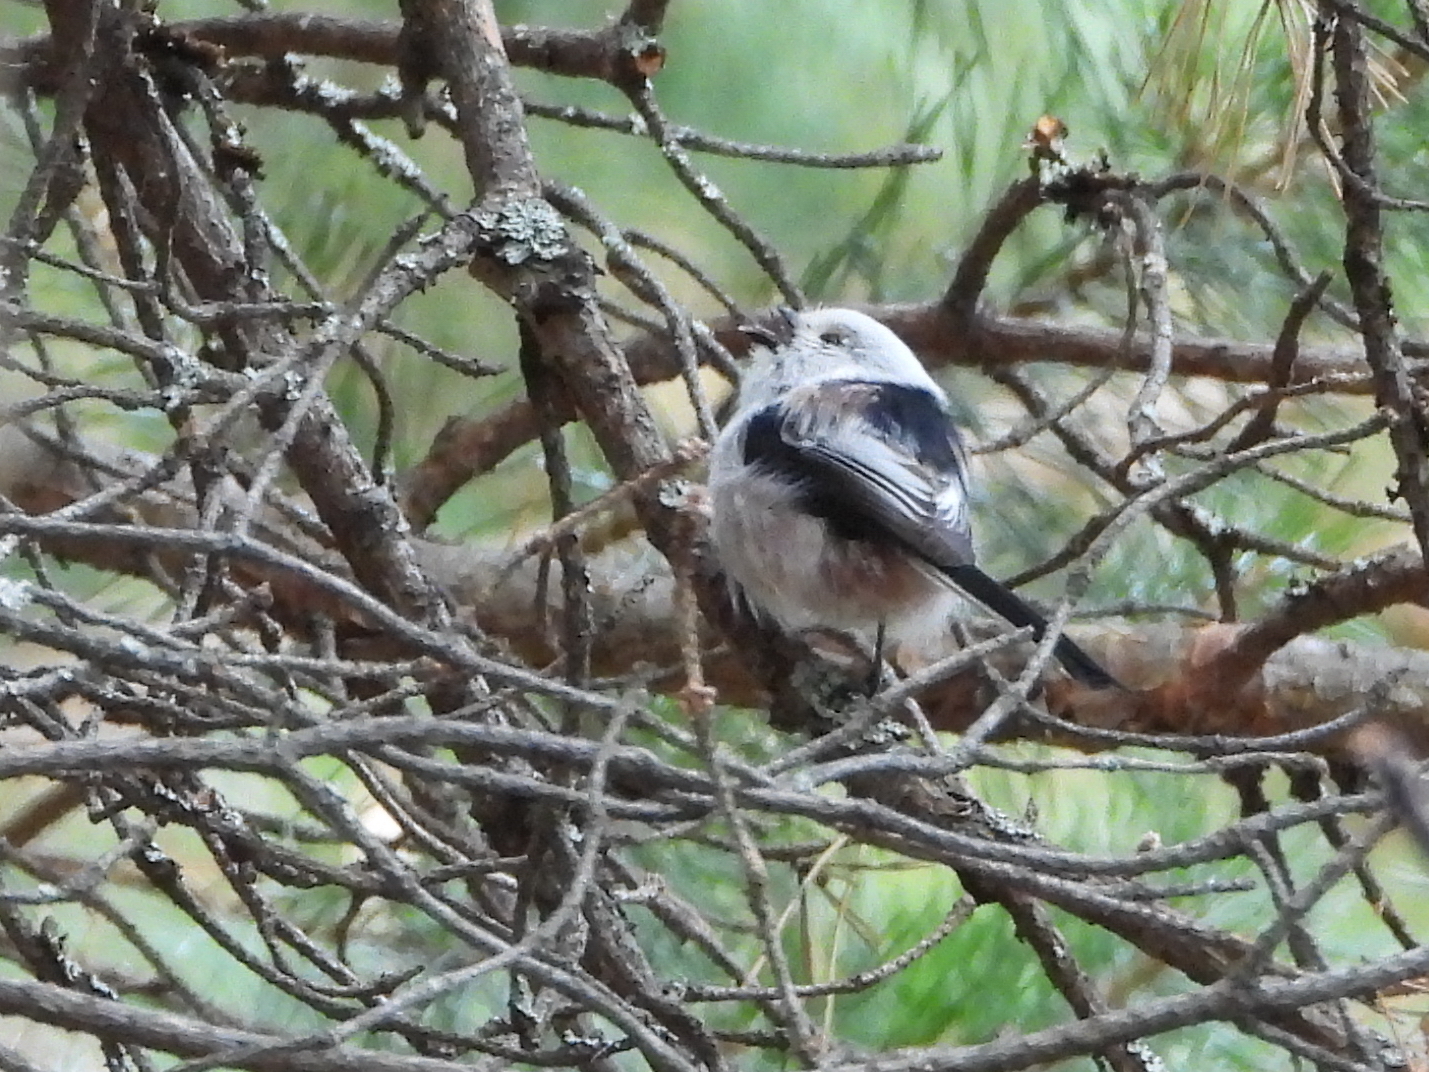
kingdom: Animalia
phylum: Chordata
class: Aves
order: Passeriformes
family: Aegithalidae
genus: Aegithalos
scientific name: Aegithalos caudatus
